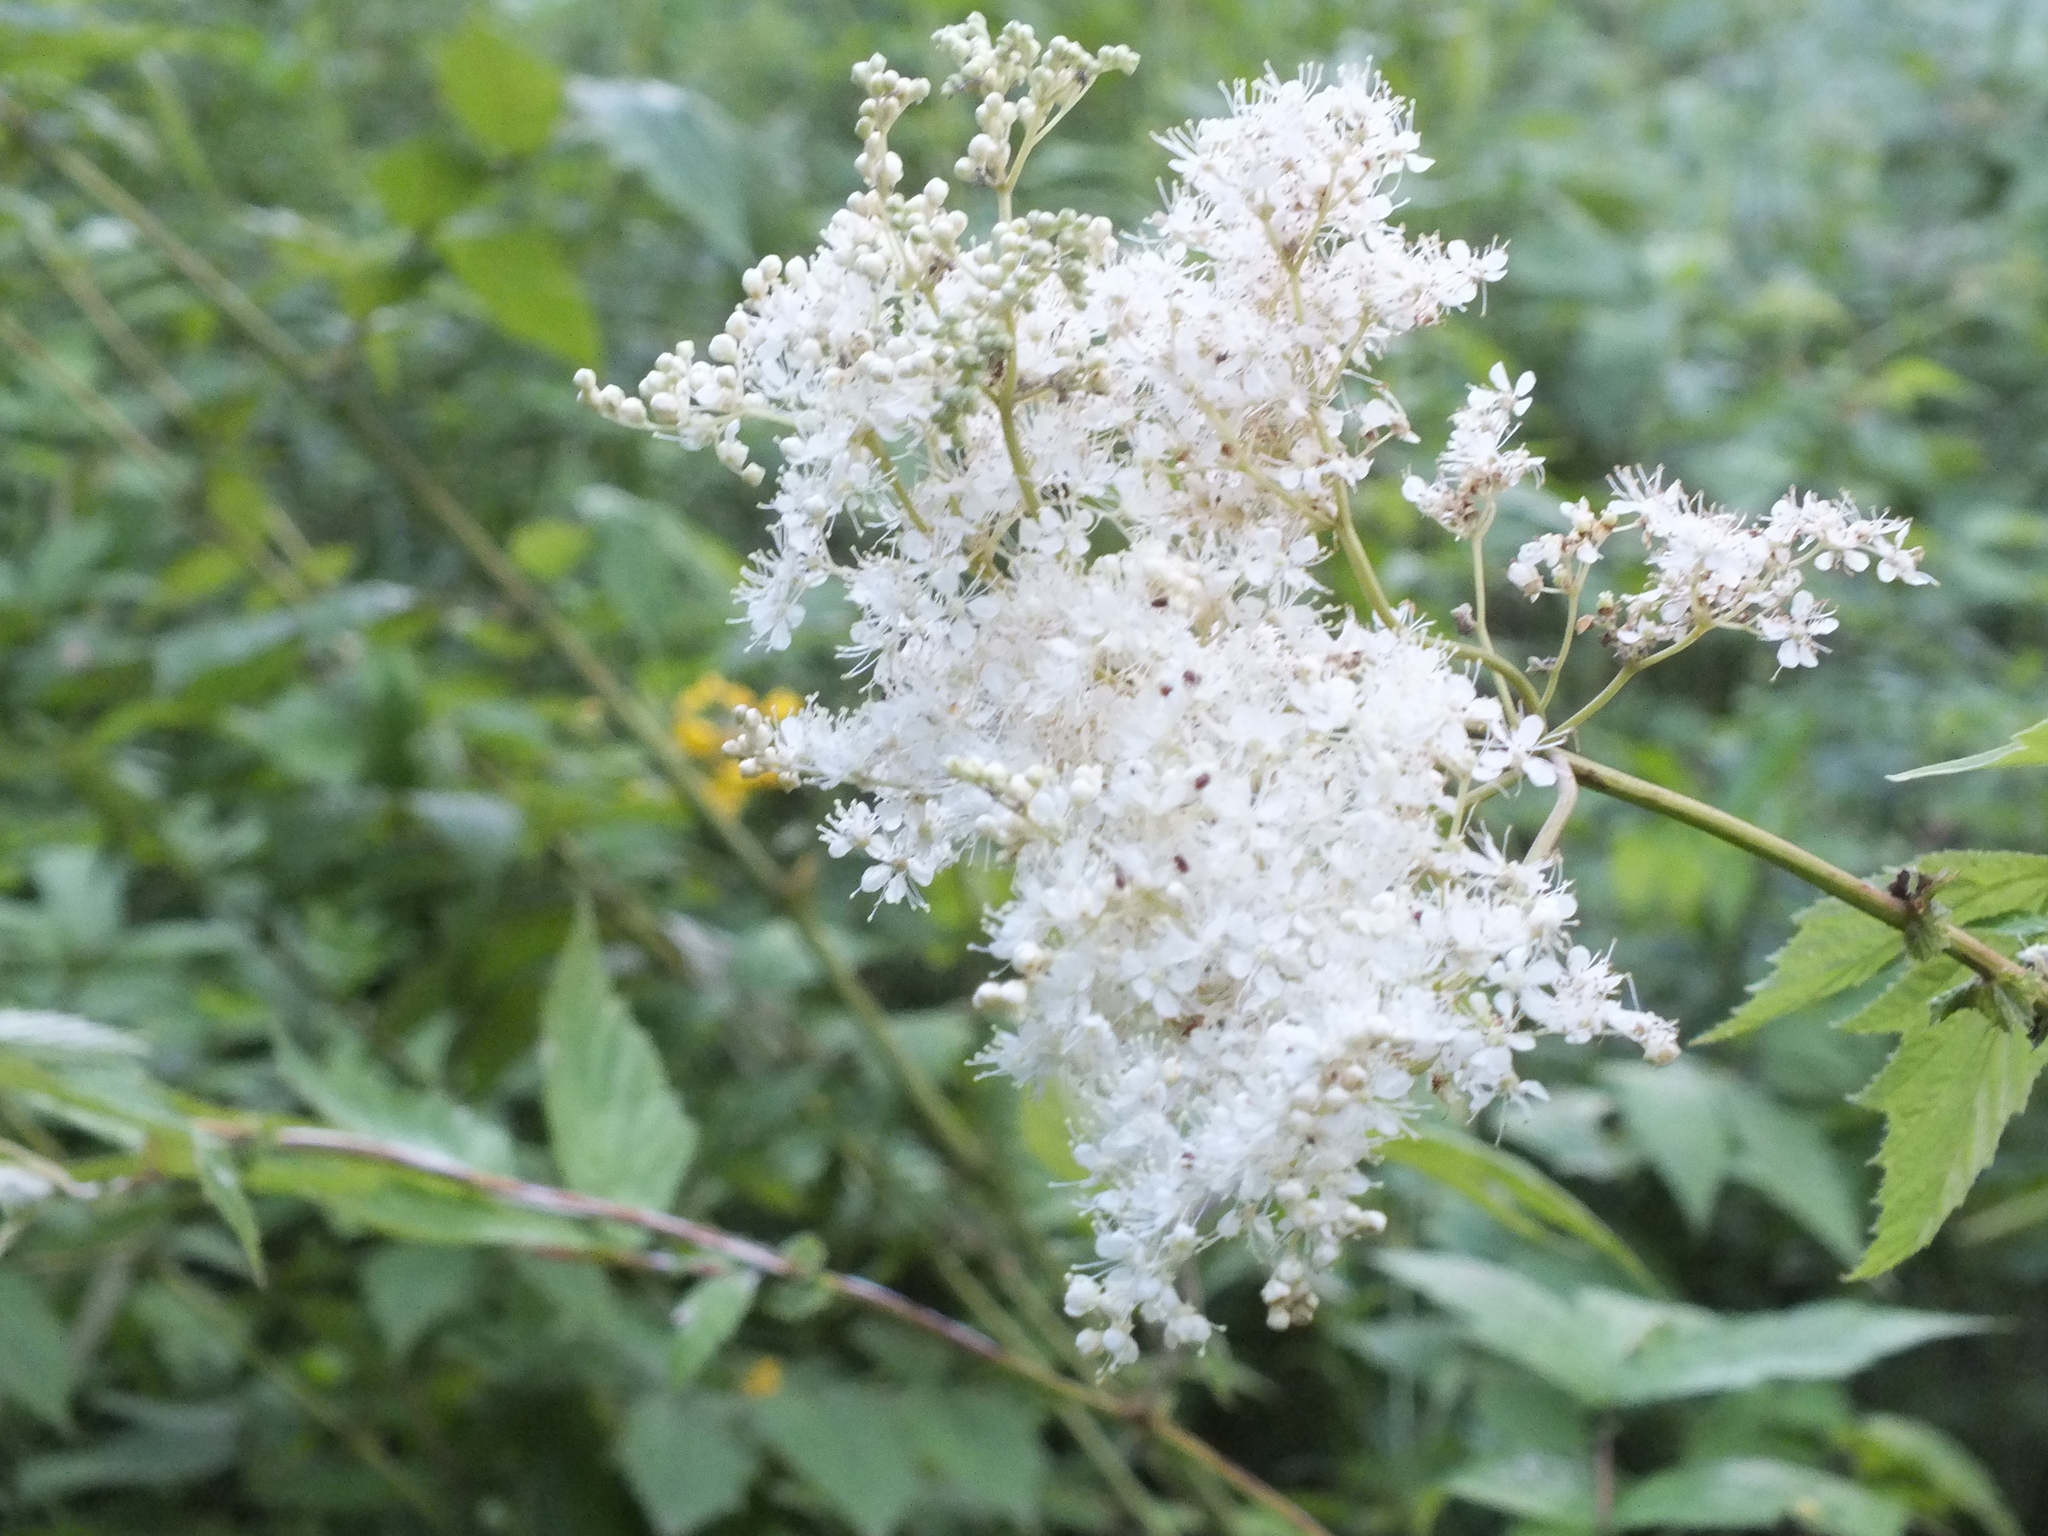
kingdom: Plantae
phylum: Tracheophyta
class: Magnoliopsida
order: Rosales
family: Rosaceae
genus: Filipendula
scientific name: Filipendula ulmaria
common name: Meadowsweet
